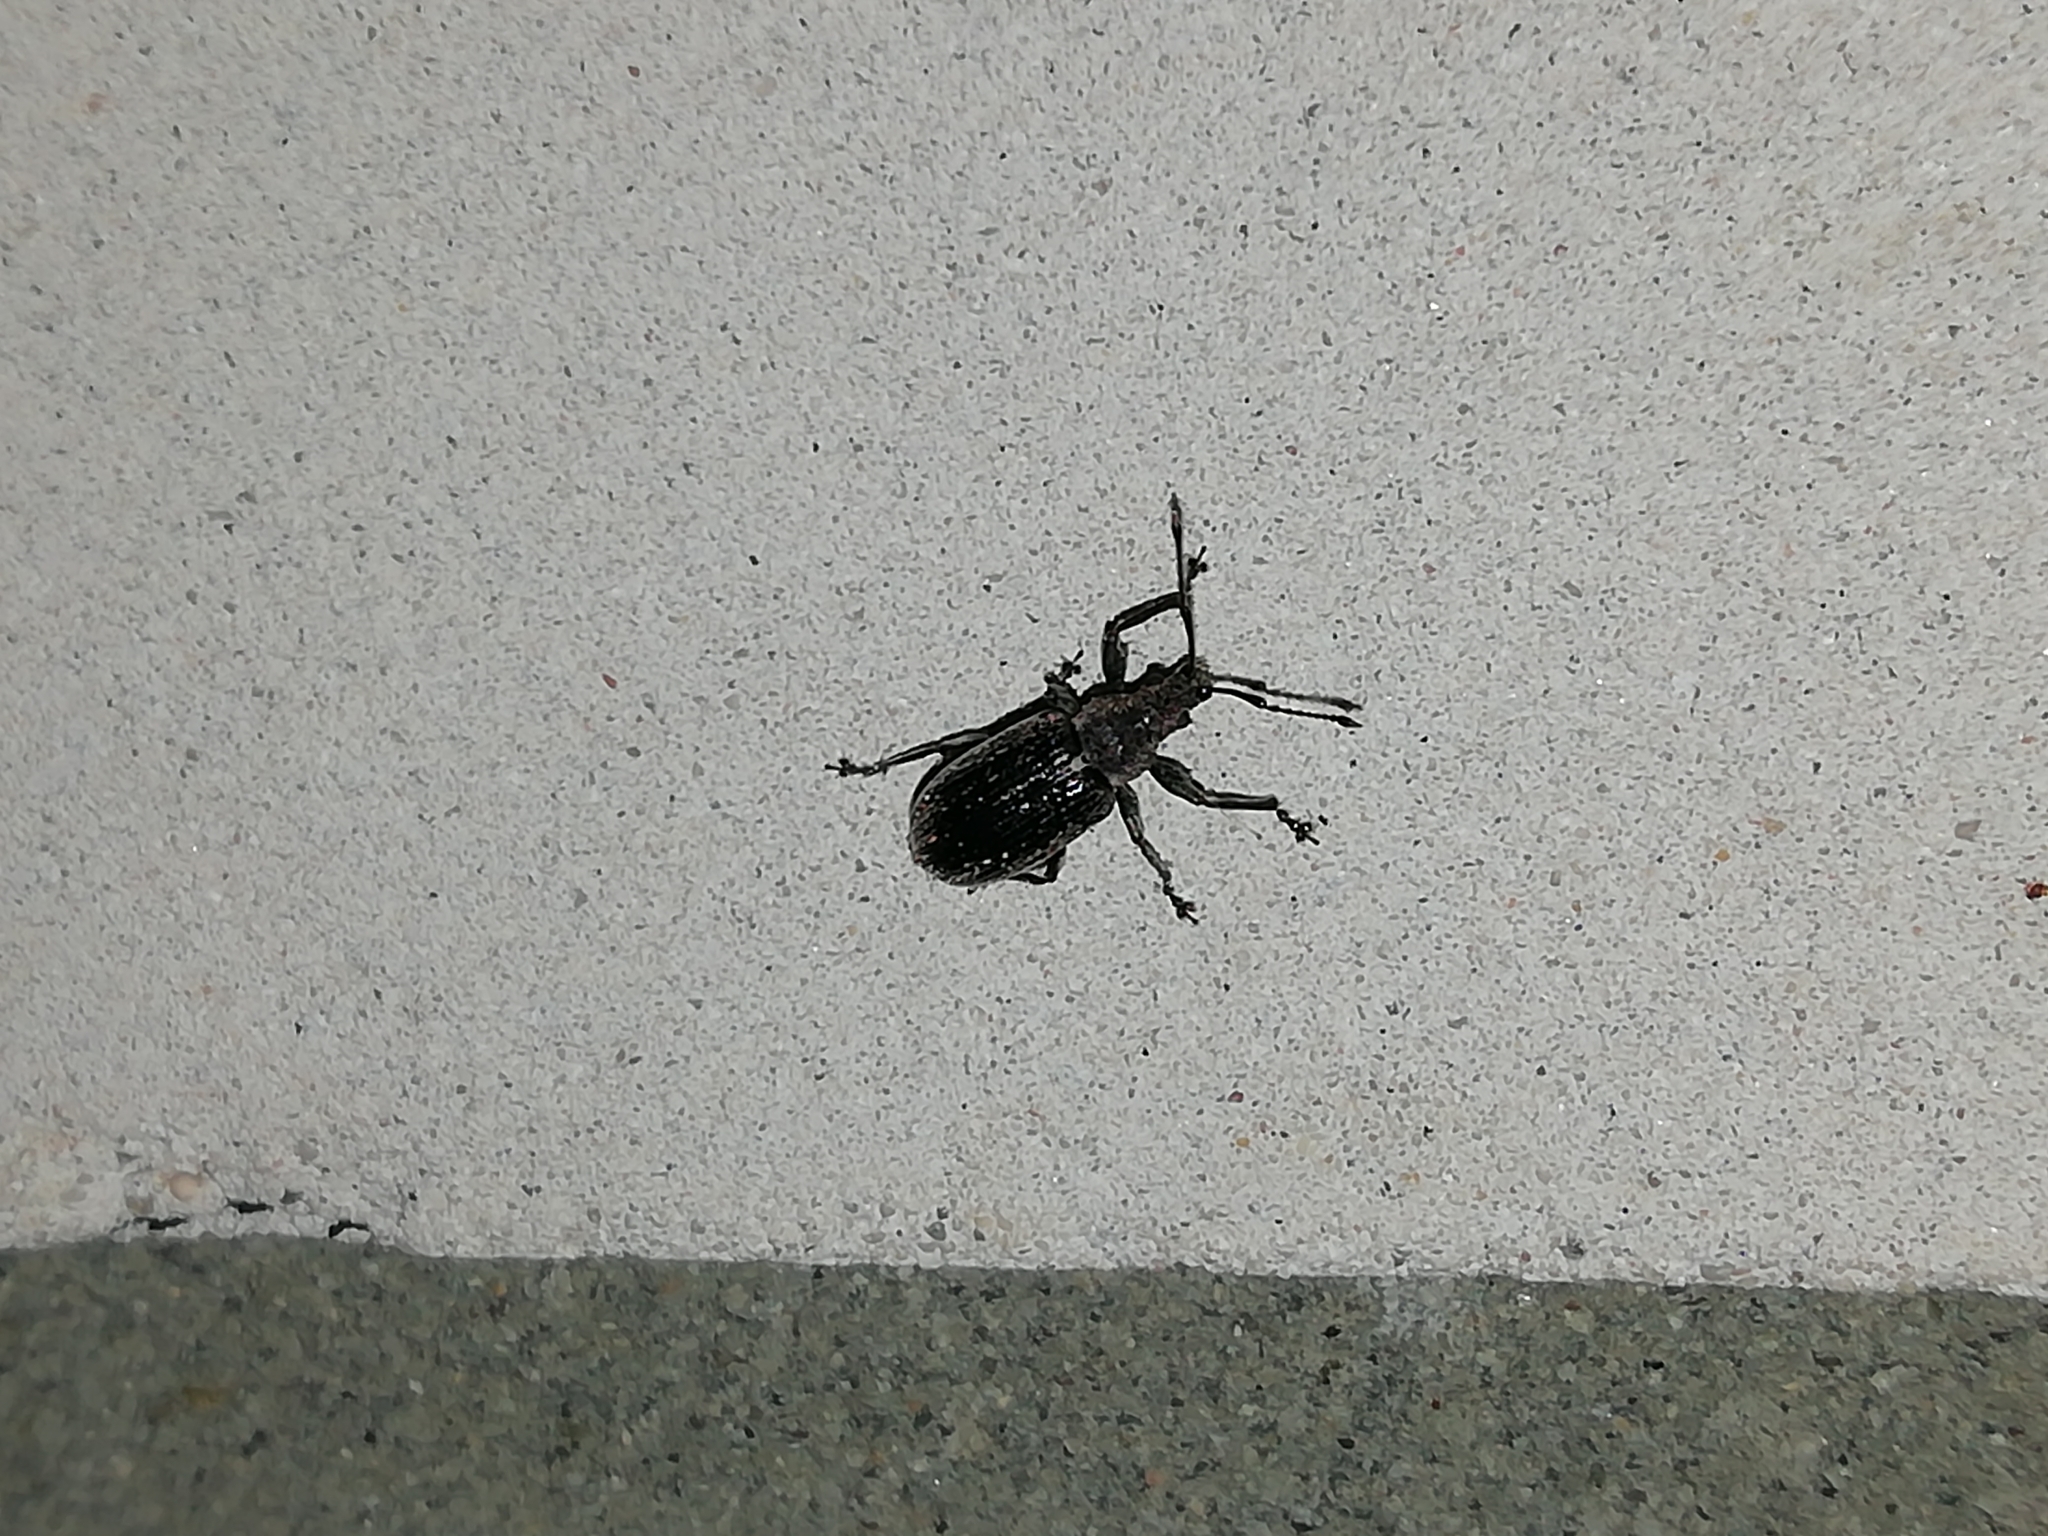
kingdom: Animalia
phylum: Arthropoda
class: Insecta
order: Coleoptera
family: Curculionidae
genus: Phyllobius
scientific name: Phyllobius pyri
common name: Common leaf weevil
